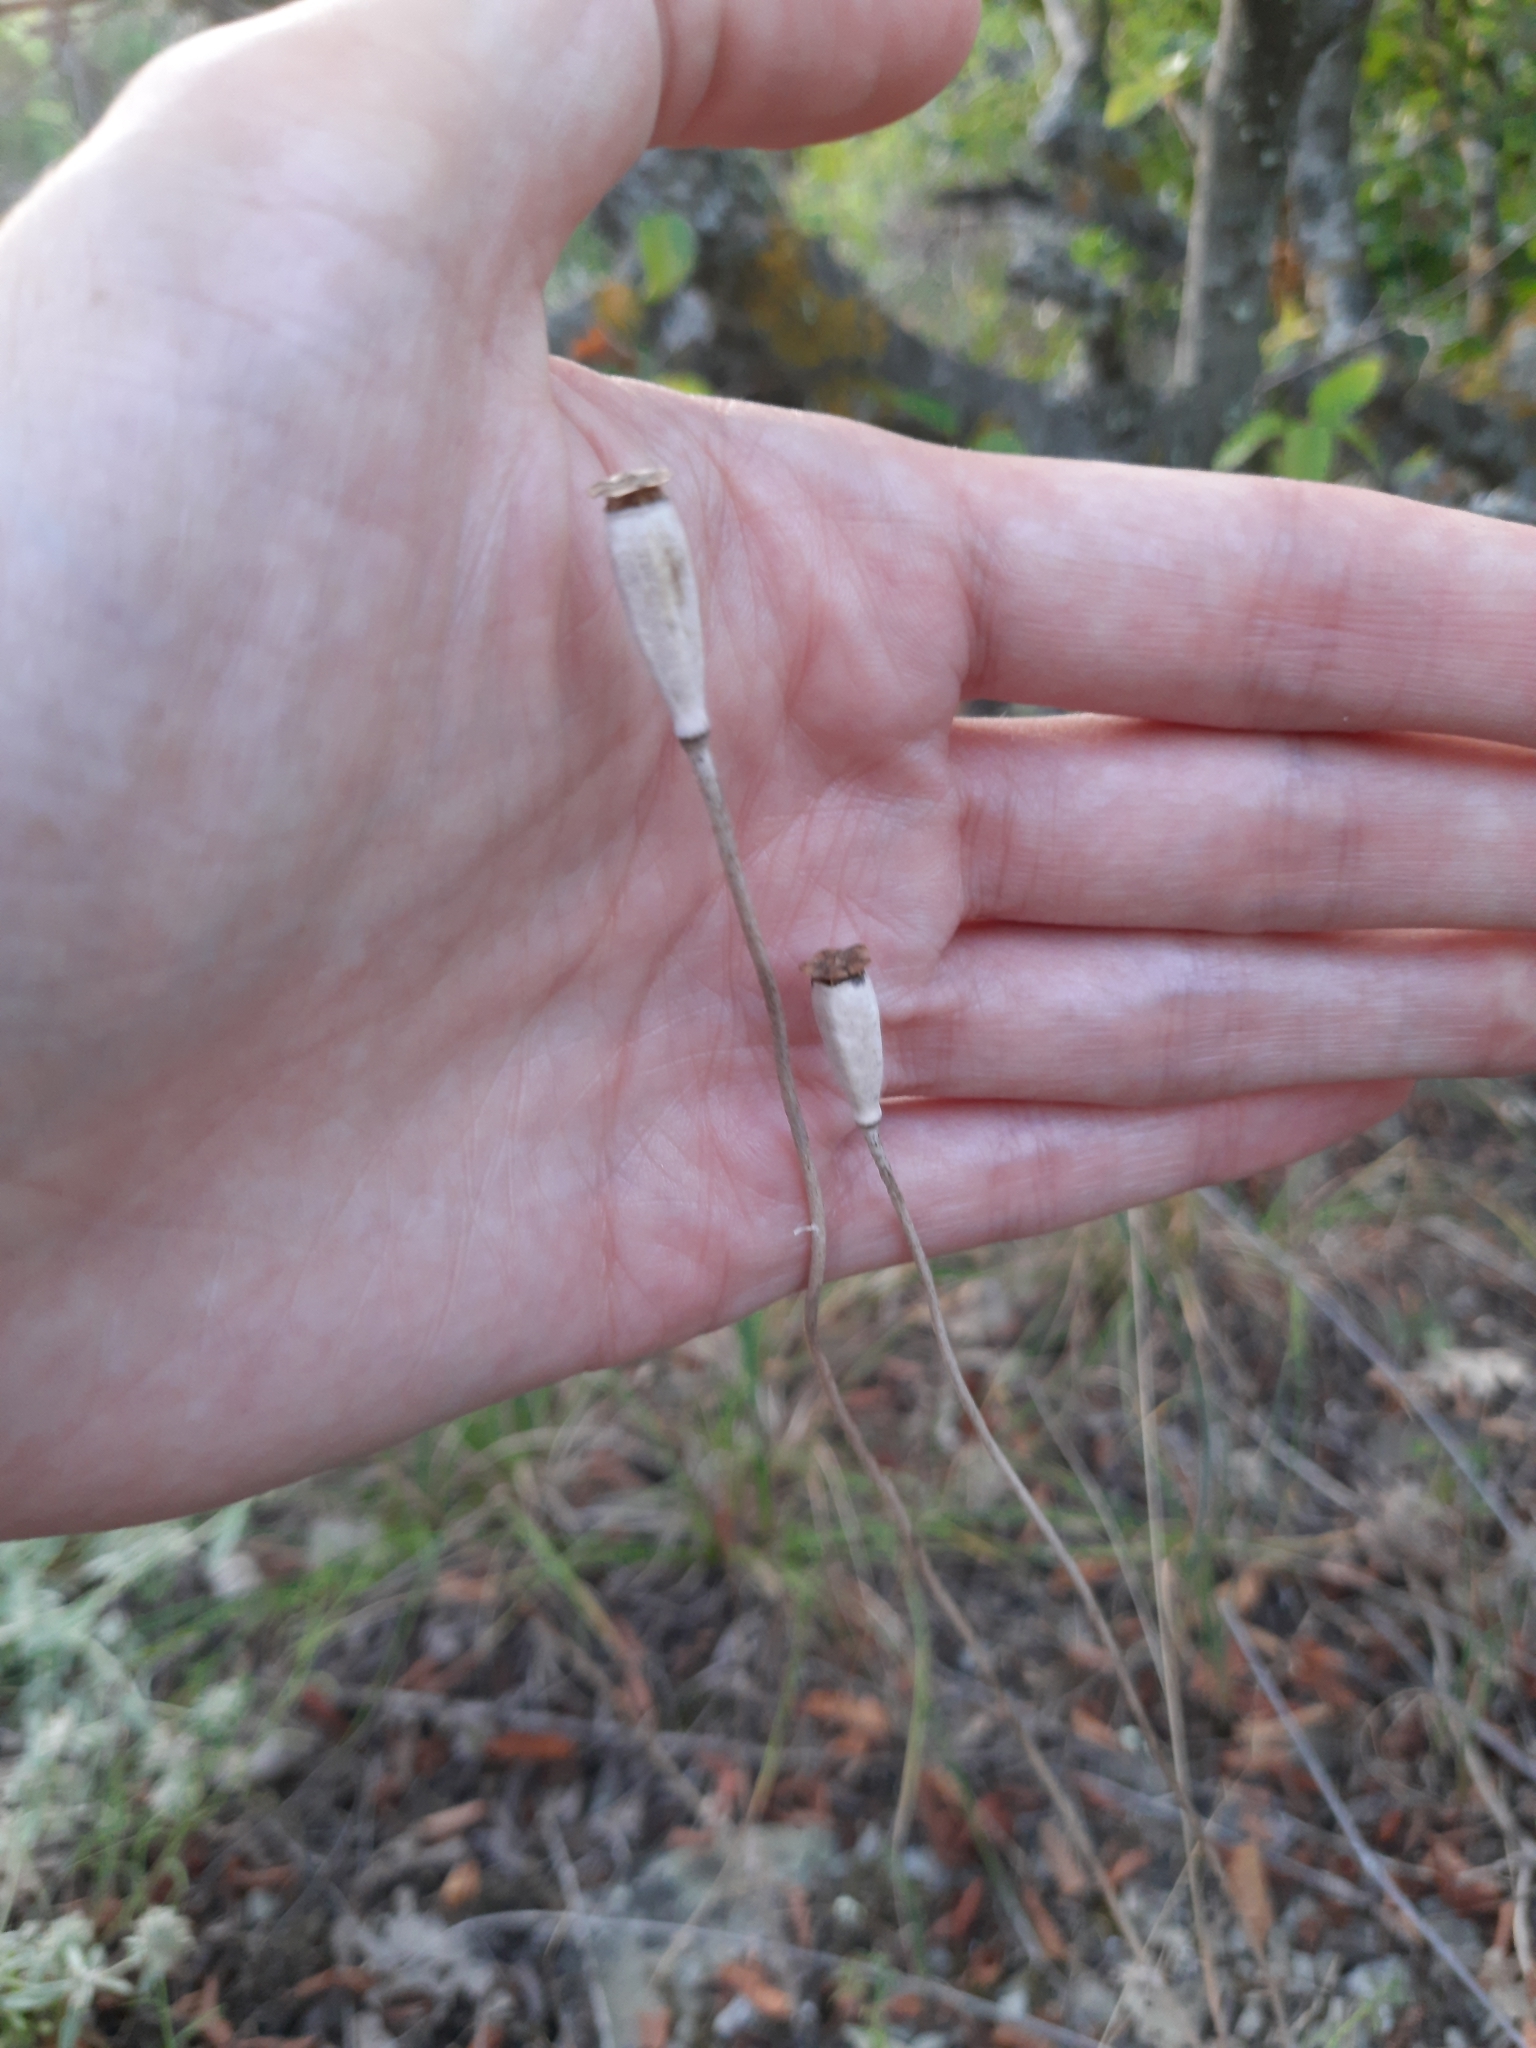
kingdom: Plantae
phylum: Tracheophyta
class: Magnoliopsida
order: Ranunculales
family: Papaveraceae
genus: Papaver
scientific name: Papaver dubium
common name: Long-headed poppy
